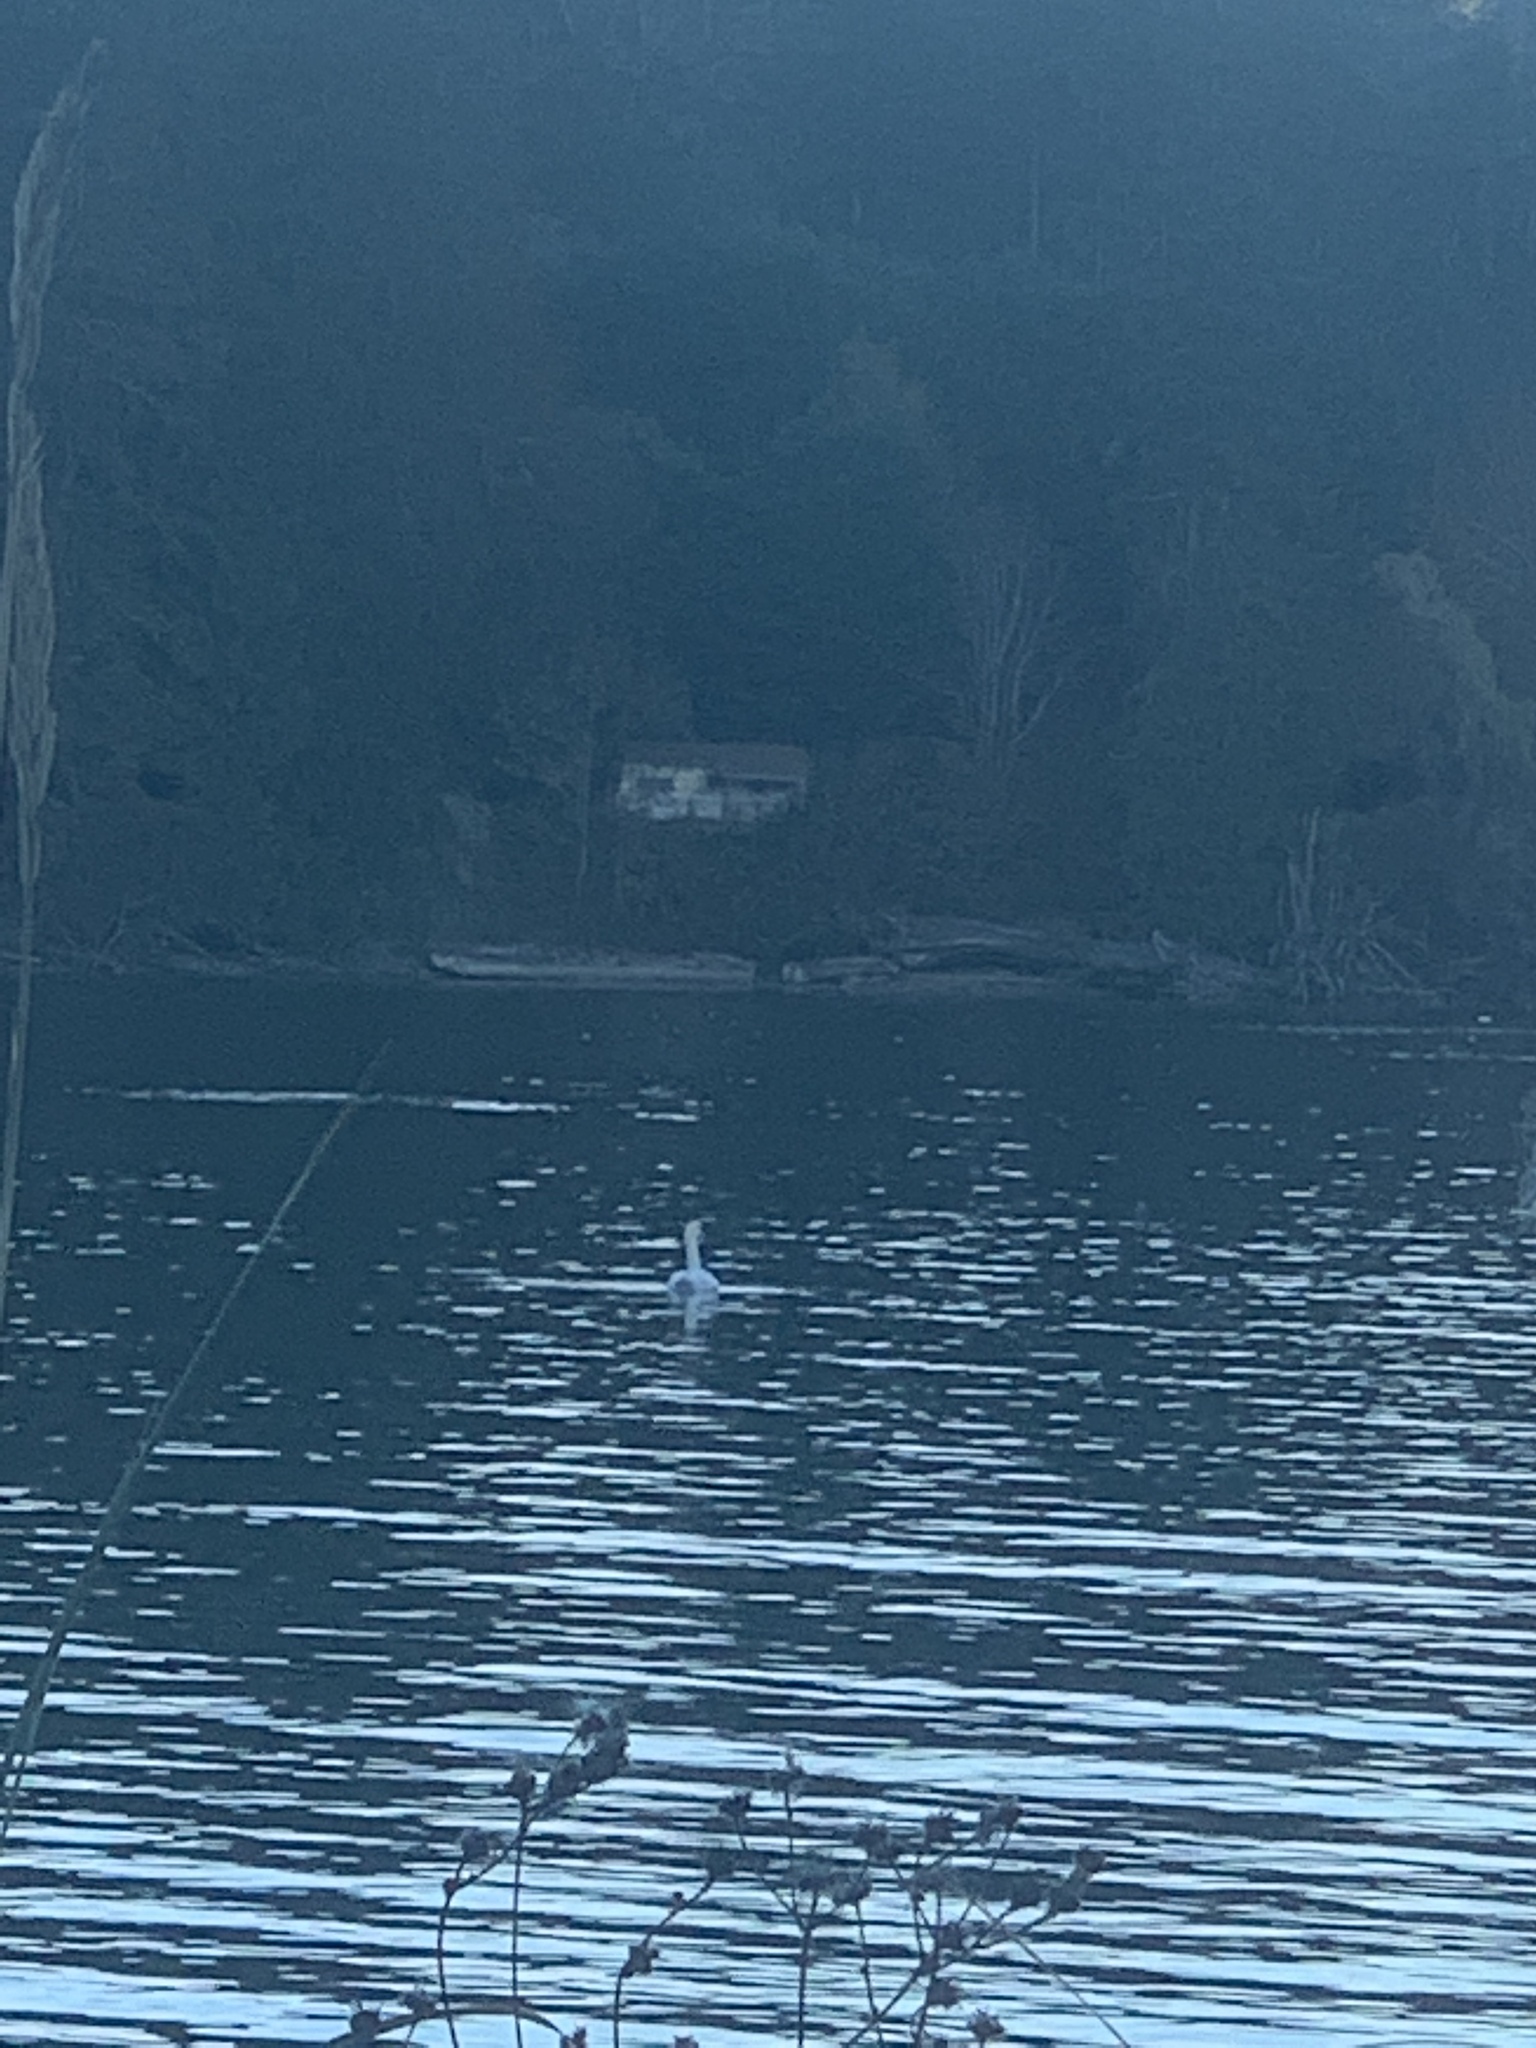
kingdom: Animalia
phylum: Chordata
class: Aves
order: Anseriformes
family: Anatidae
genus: Cygnus
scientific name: Cygnus olor
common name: Mute swan
